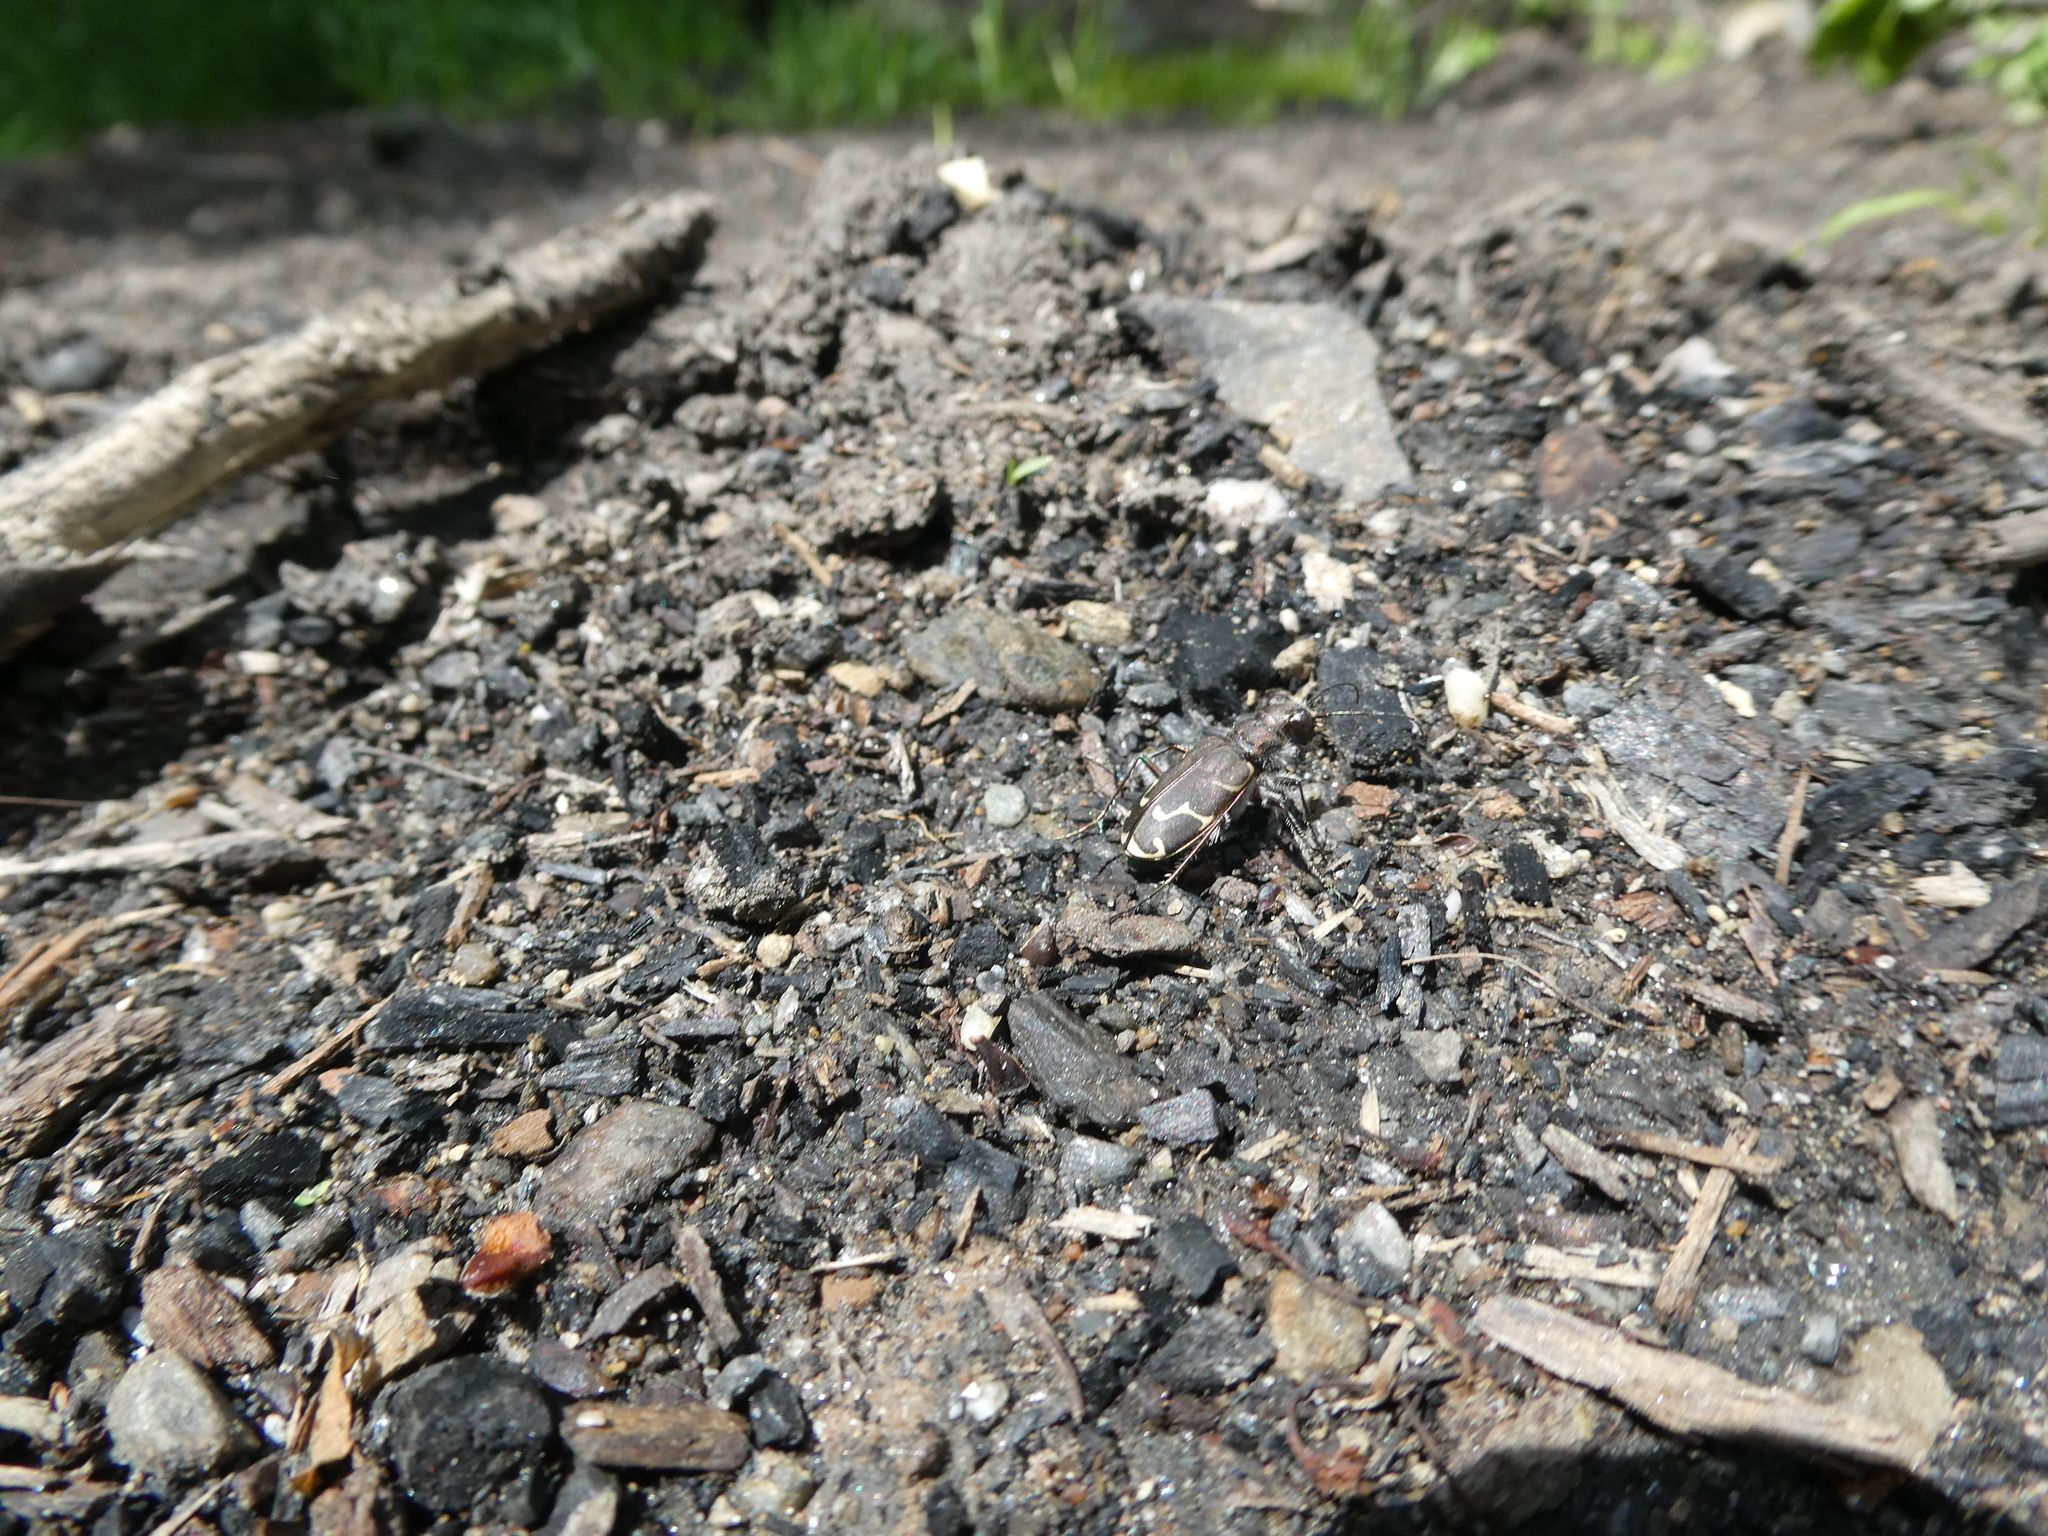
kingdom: Animalia
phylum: Arthropoda
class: Insecta
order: Coleoptera
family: Carabidae
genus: Cicindela
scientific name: Cicindela tranquebarica
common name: Oblique-lined tiger beetle
